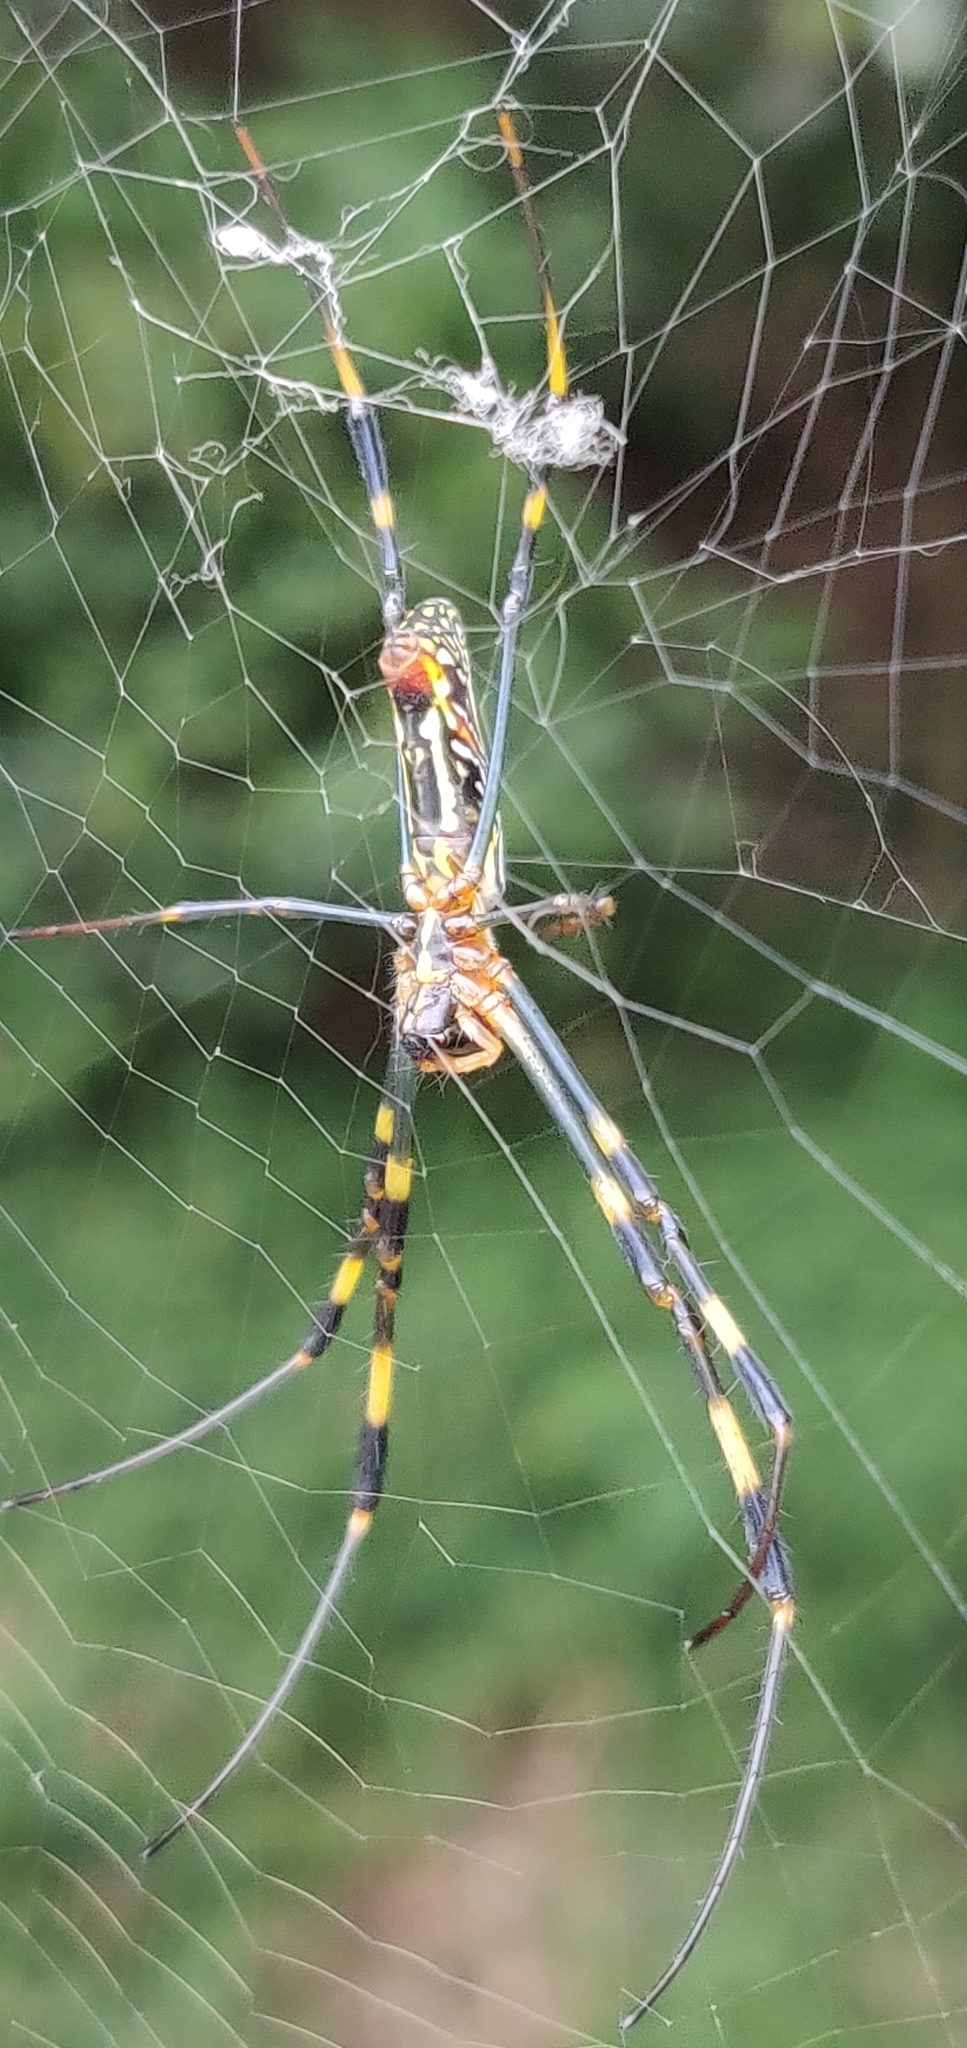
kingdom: Animalia
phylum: Arthropoda
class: Arachnida
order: Araneae
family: Araneidae
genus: Trichonephila
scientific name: Trichonephila clavata
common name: Jorō spider
